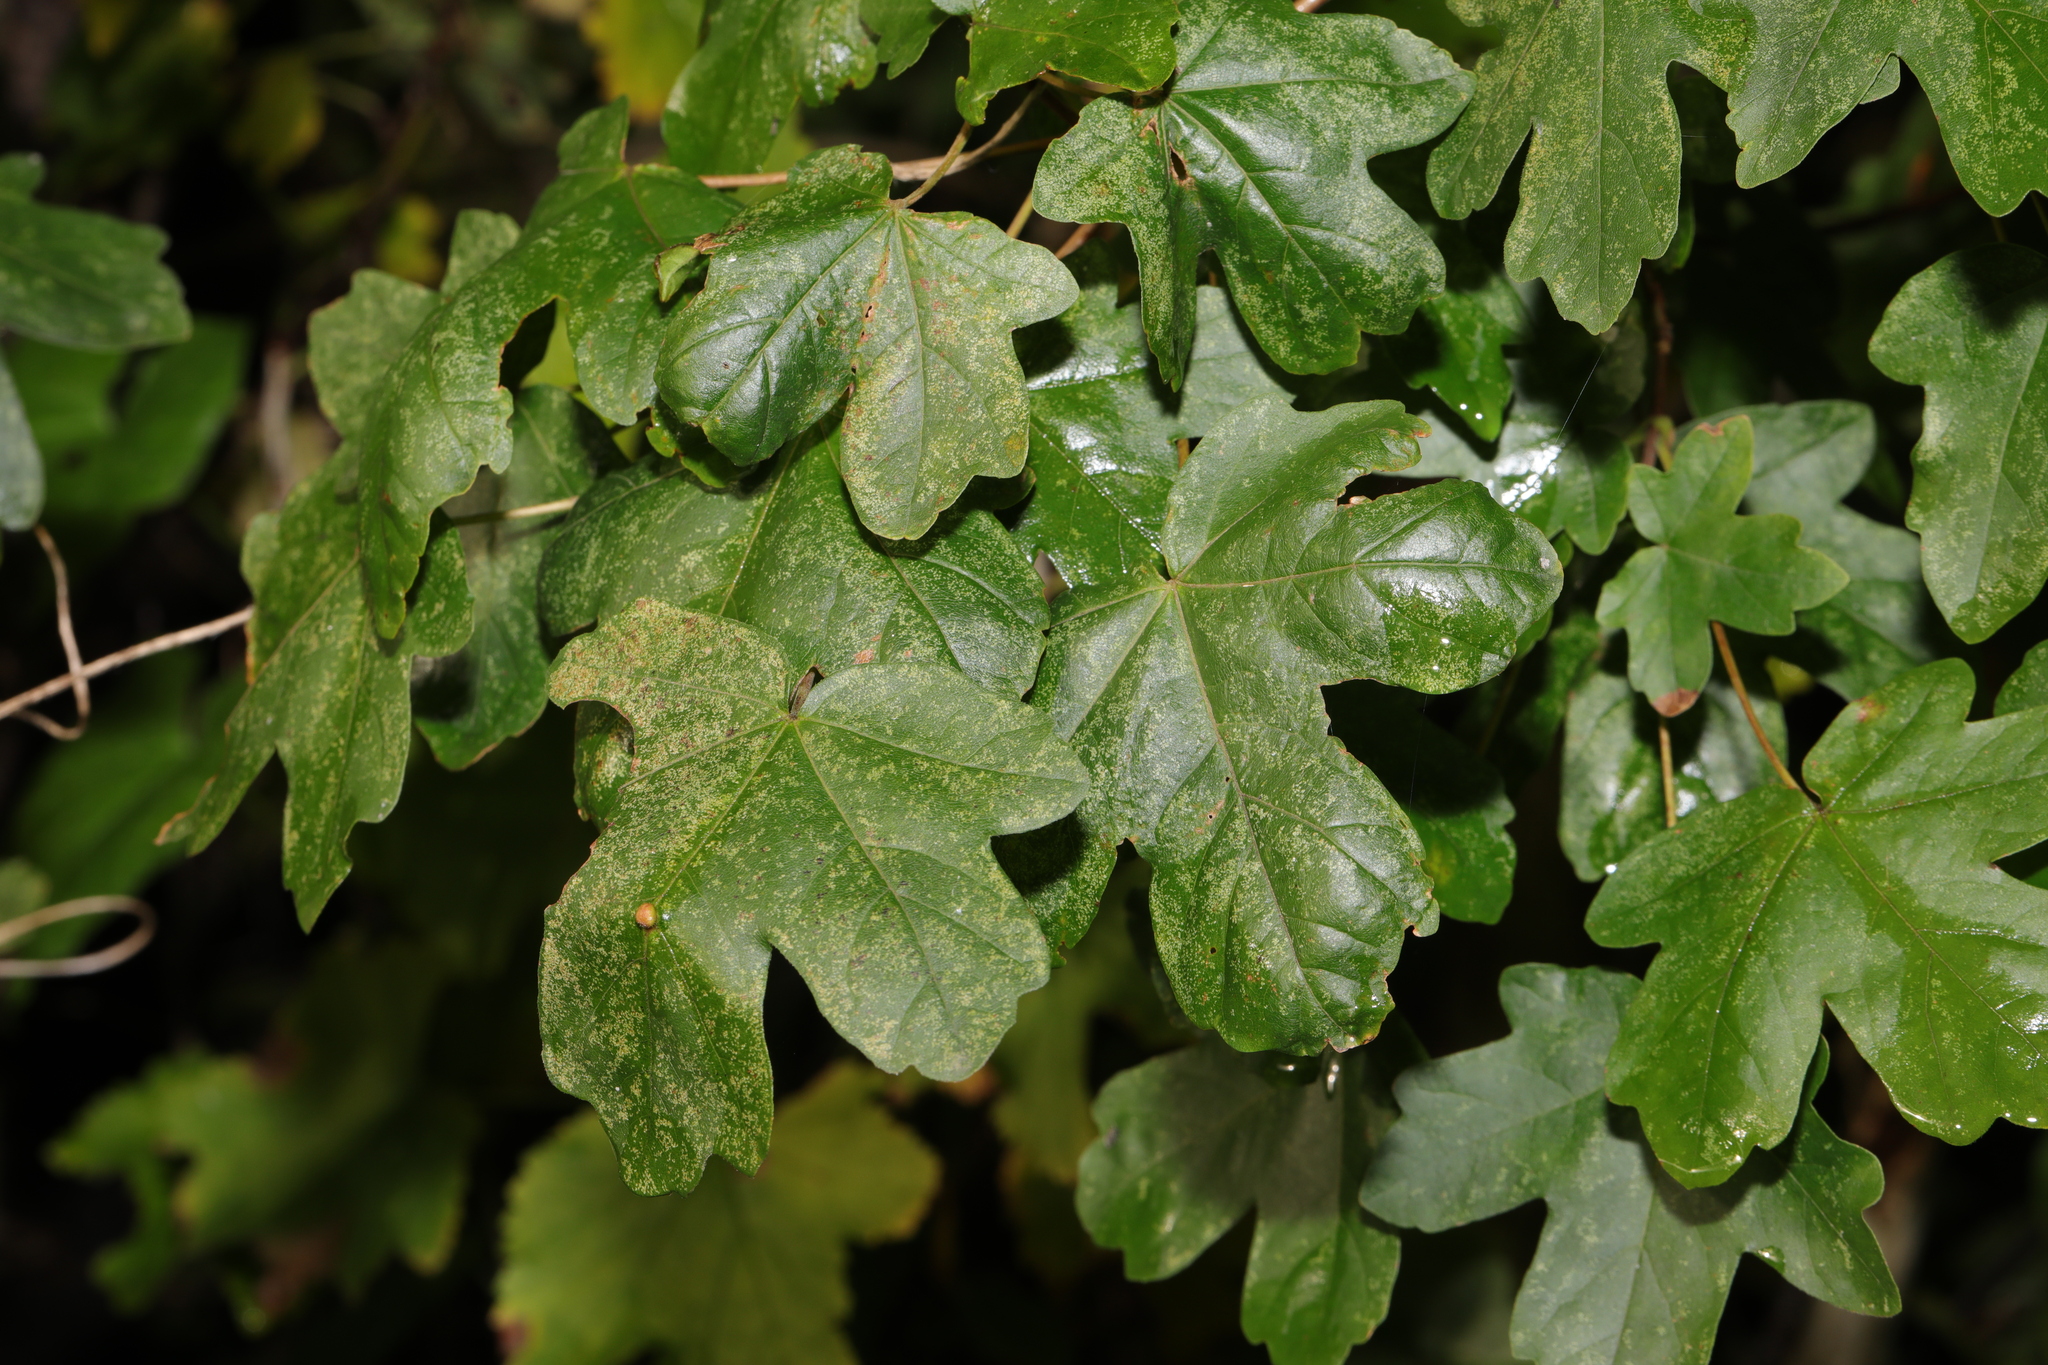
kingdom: Plantae
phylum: Tracheophyta
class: Magnoliopsida
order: Sapindales
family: Sapindaceae
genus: Acer
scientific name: Acer campestre
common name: Field maple
